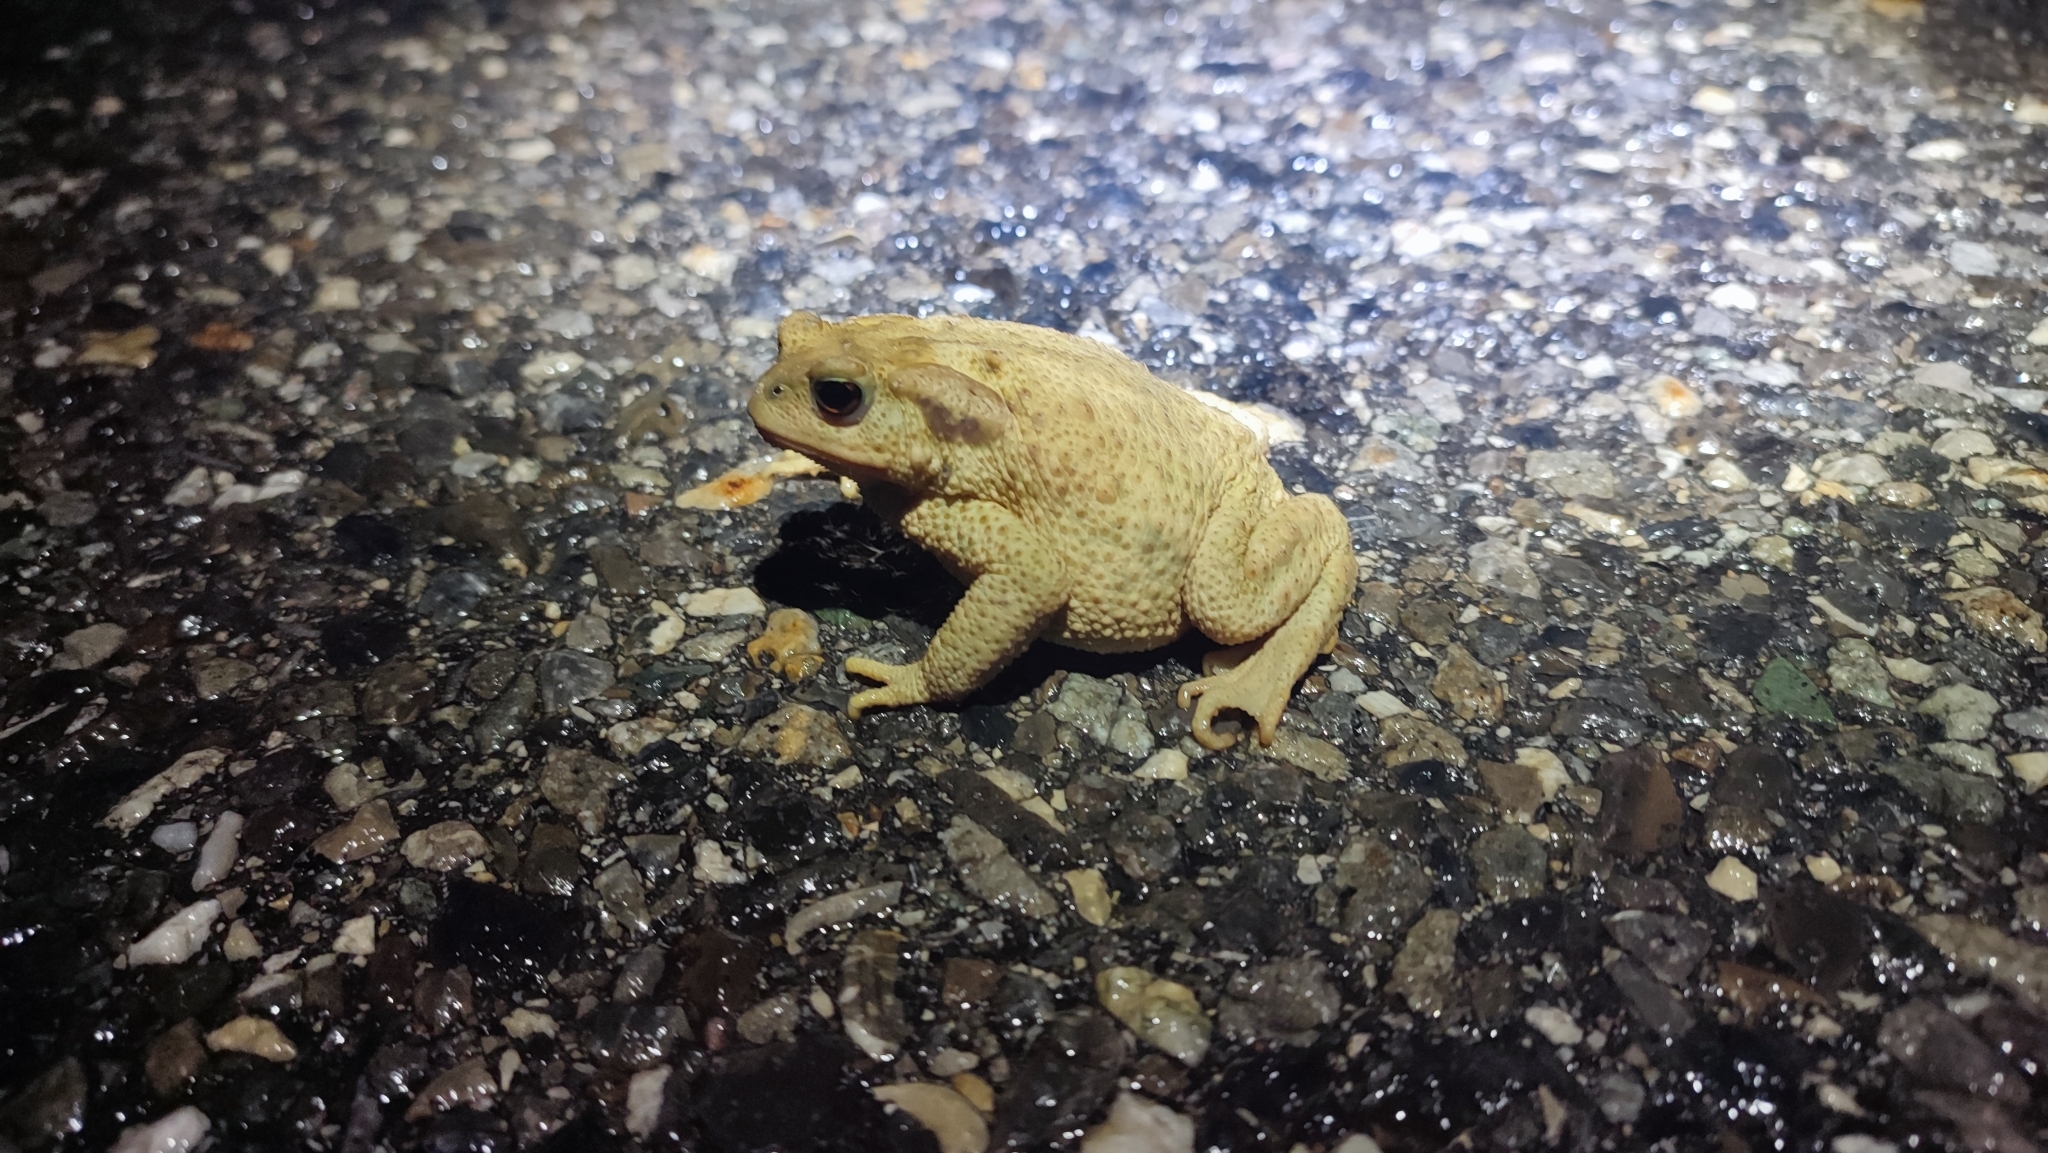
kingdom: Animalia
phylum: Chordata
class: Amphibia
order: Anura
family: Bufonidae
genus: Bufo
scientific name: Bufo spinosus
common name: Western common toad
